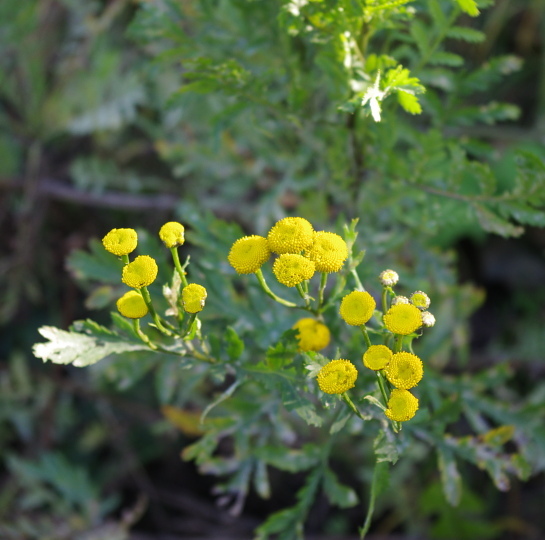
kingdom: Plantae
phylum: Tracheophyta
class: Magnoliopsida
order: Asterales
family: Asteraceae
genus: Tanacetum
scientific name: Tanacetum vulgare
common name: Common tansy
